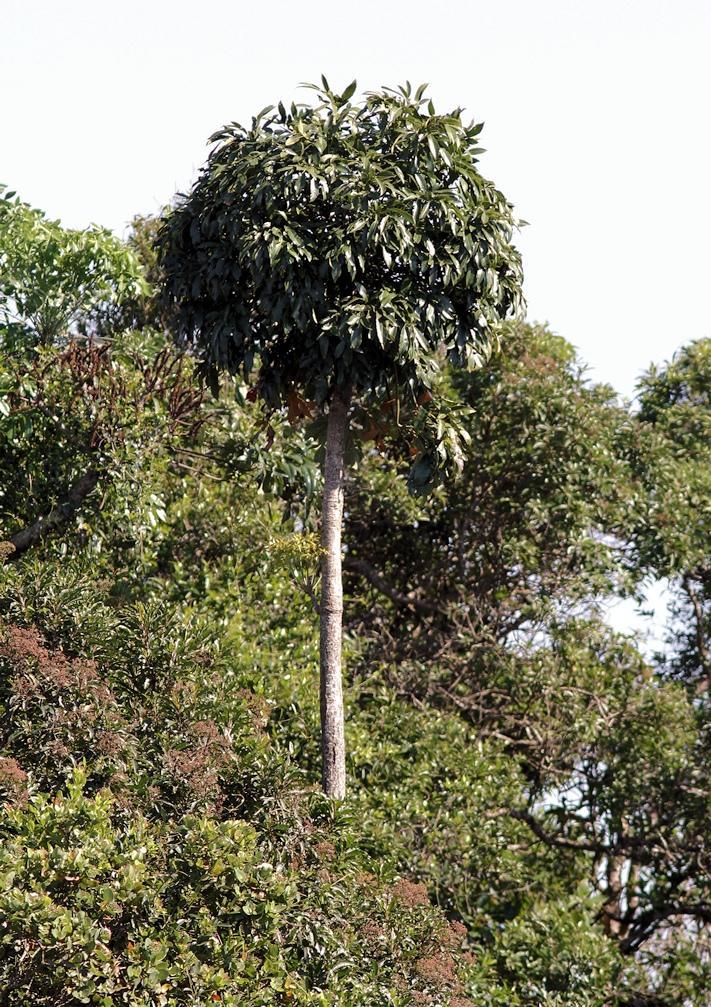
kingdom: Plantae
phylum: Tracheophyta
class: Magnoliopsida
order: Apiales
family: Araliaceae
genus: Cussonia
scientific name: Cussonia spicata
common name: Common cabbagetree
